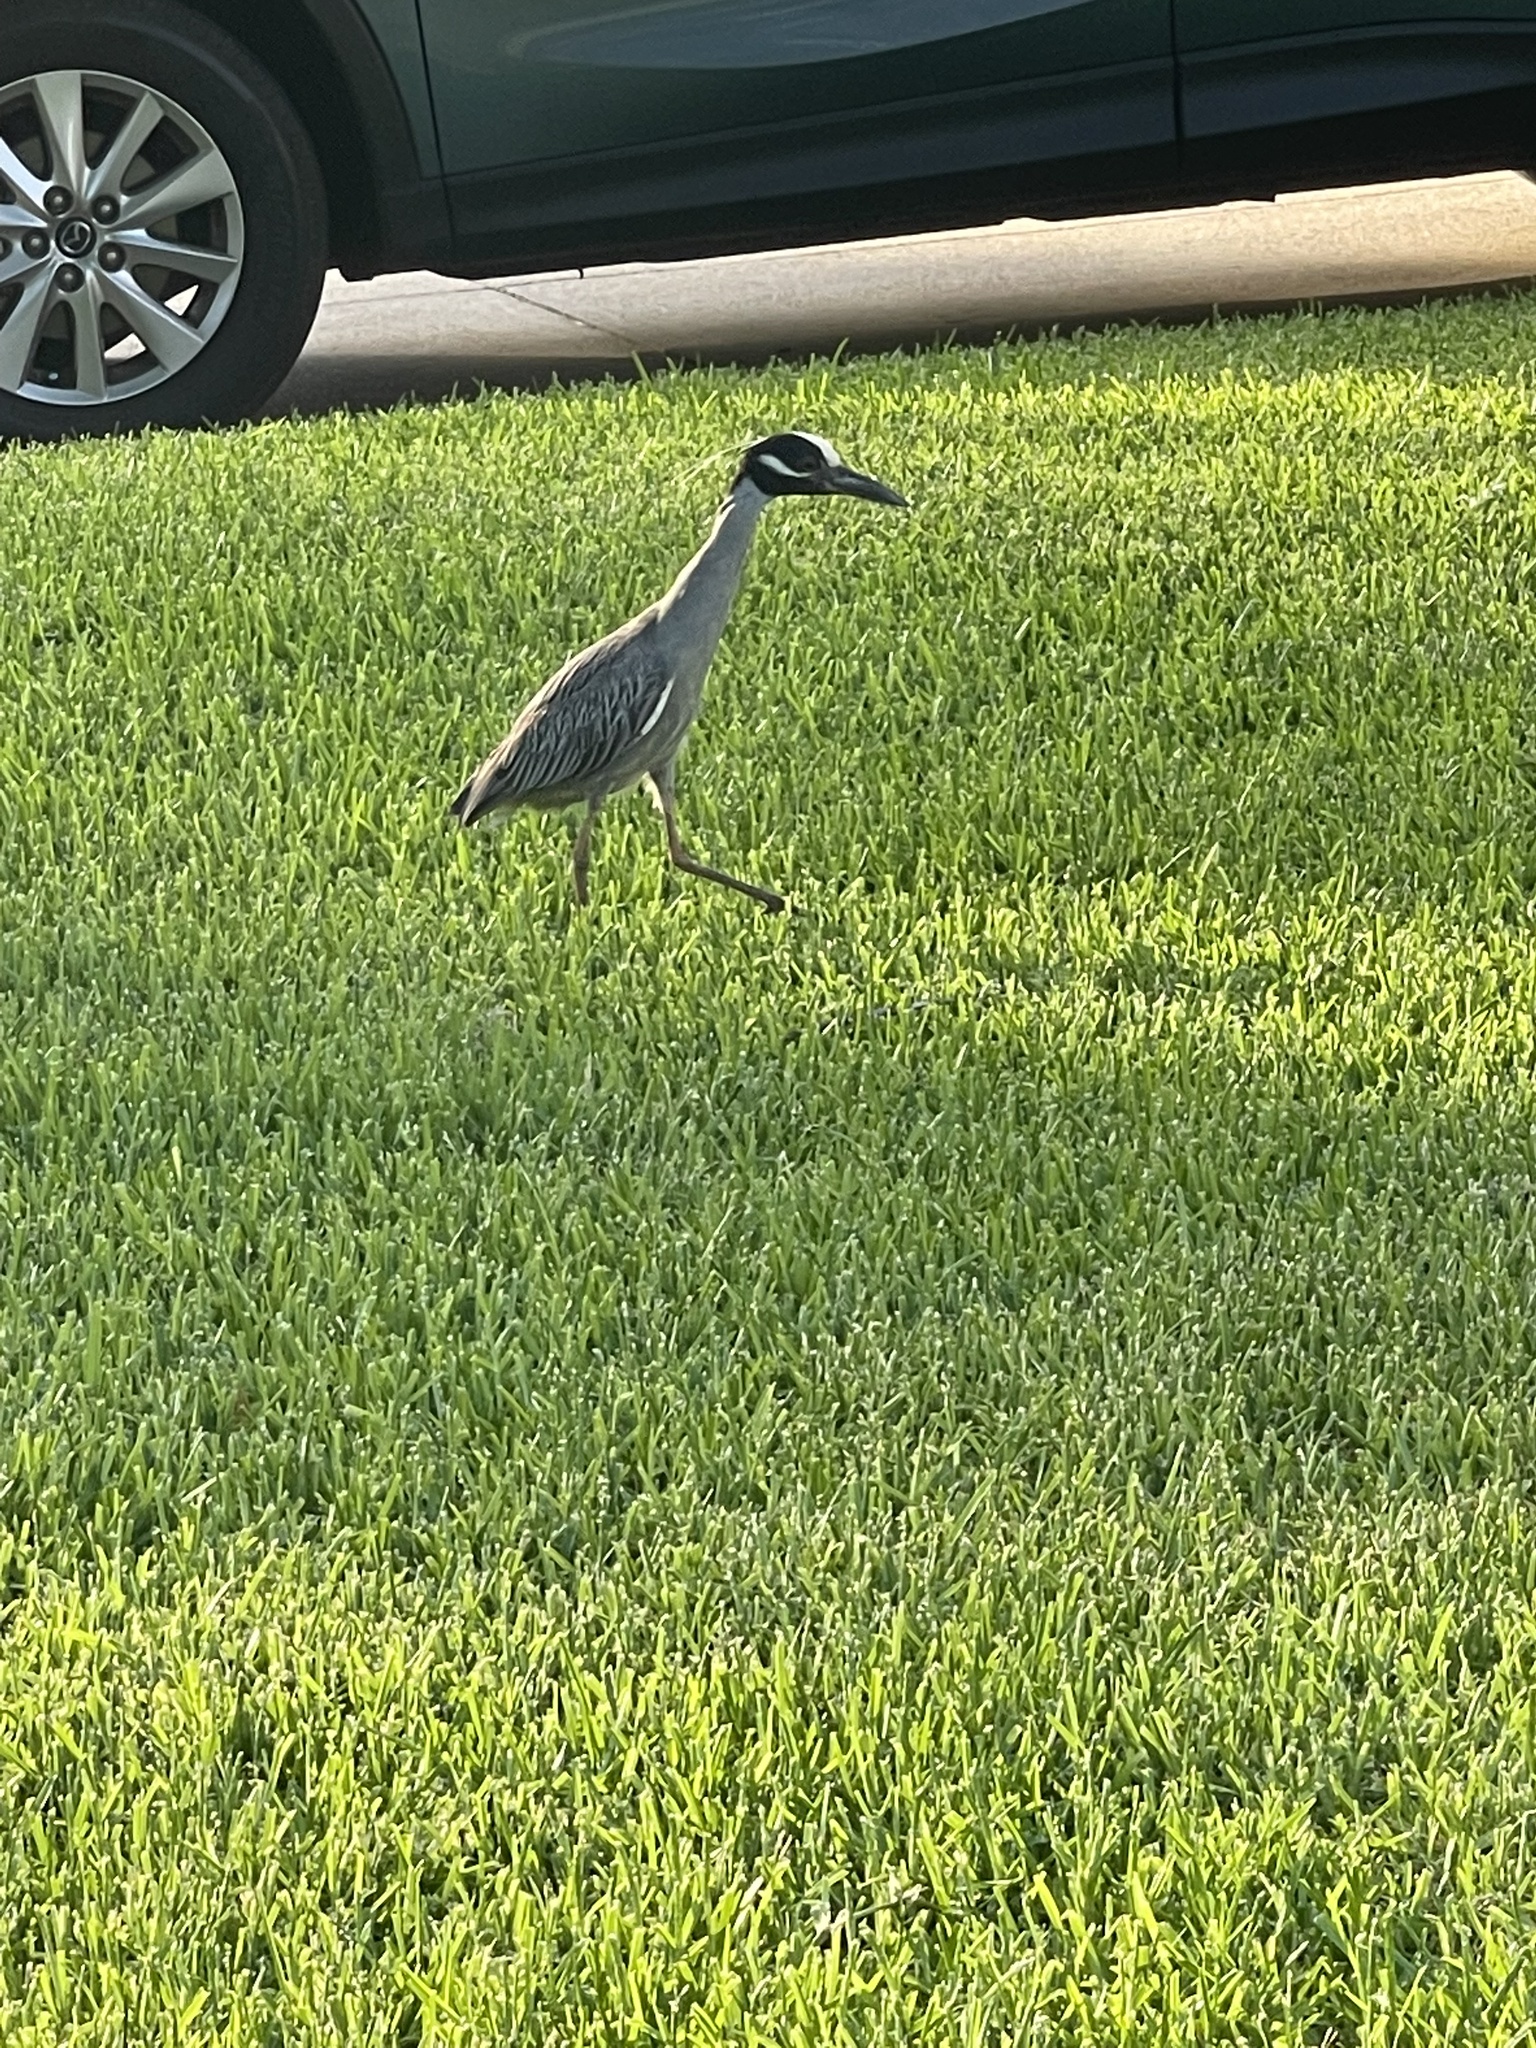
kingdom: Animalia
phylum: Chordata
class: Aves
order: Pelecaniformes
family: Ardeidae
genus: Nyctanassa
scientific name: Nyctanassa violacea
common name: Yellow-crowned night heron
